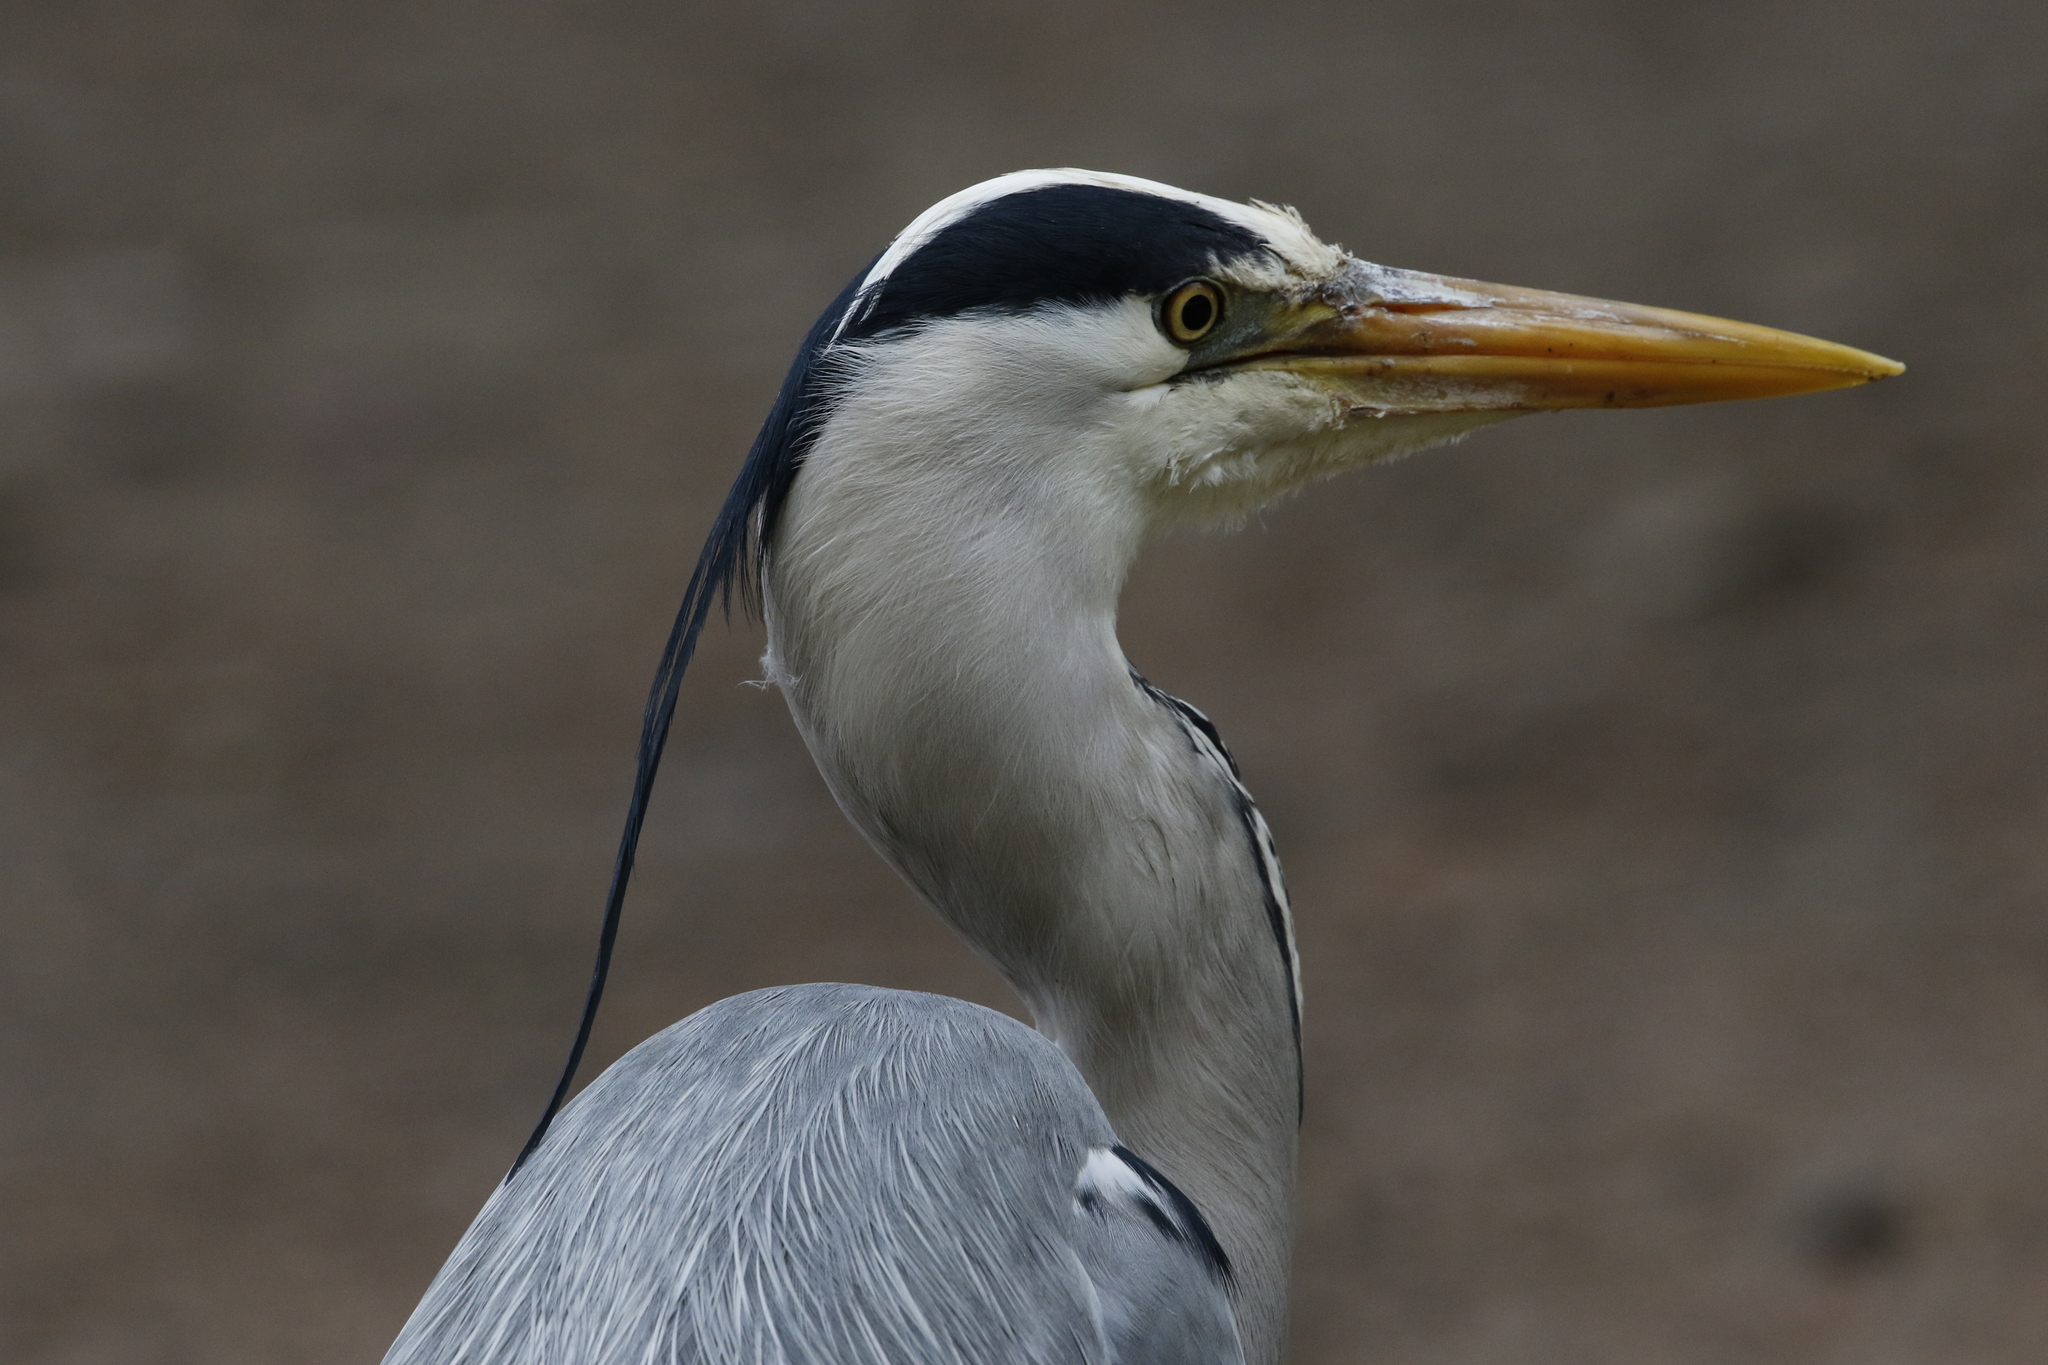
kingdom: Animalia
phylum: Chordata
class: Aves
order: Pelecaniformes
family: Ardeidae
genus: Ardea
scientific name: Ardea cinerea
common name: Grey heron
